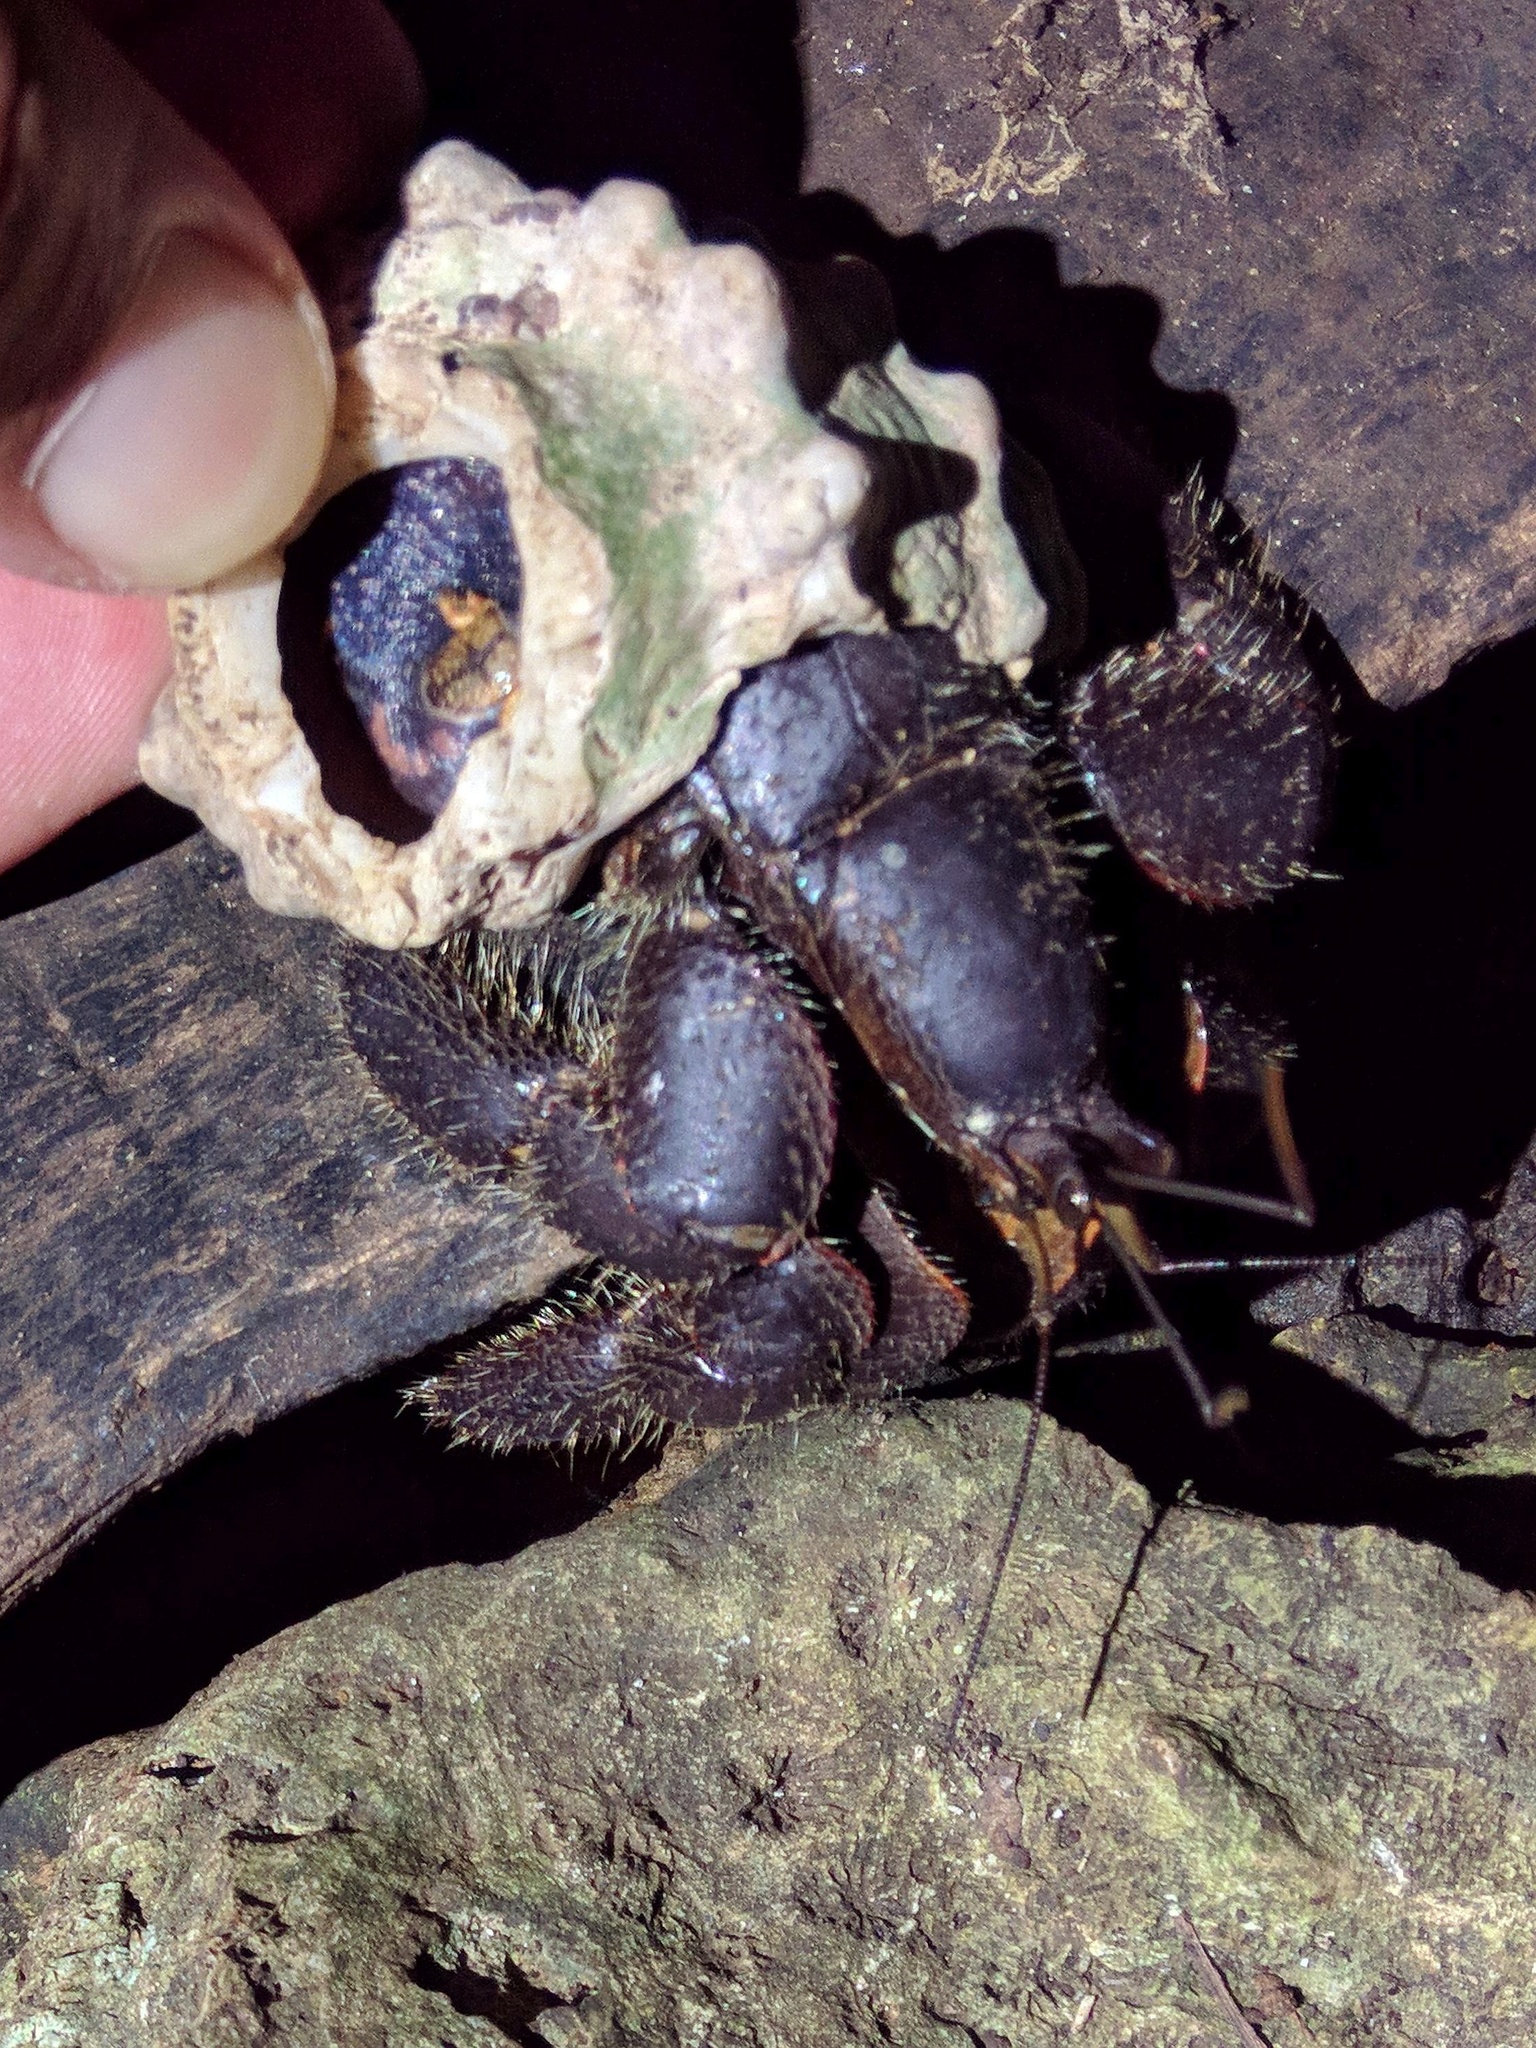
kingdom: Animalia
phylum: Arthropoda
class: Malacostraca
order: Decapoda
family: Coenobitidae
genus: Coenobita
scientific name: Coenobita spinosus
